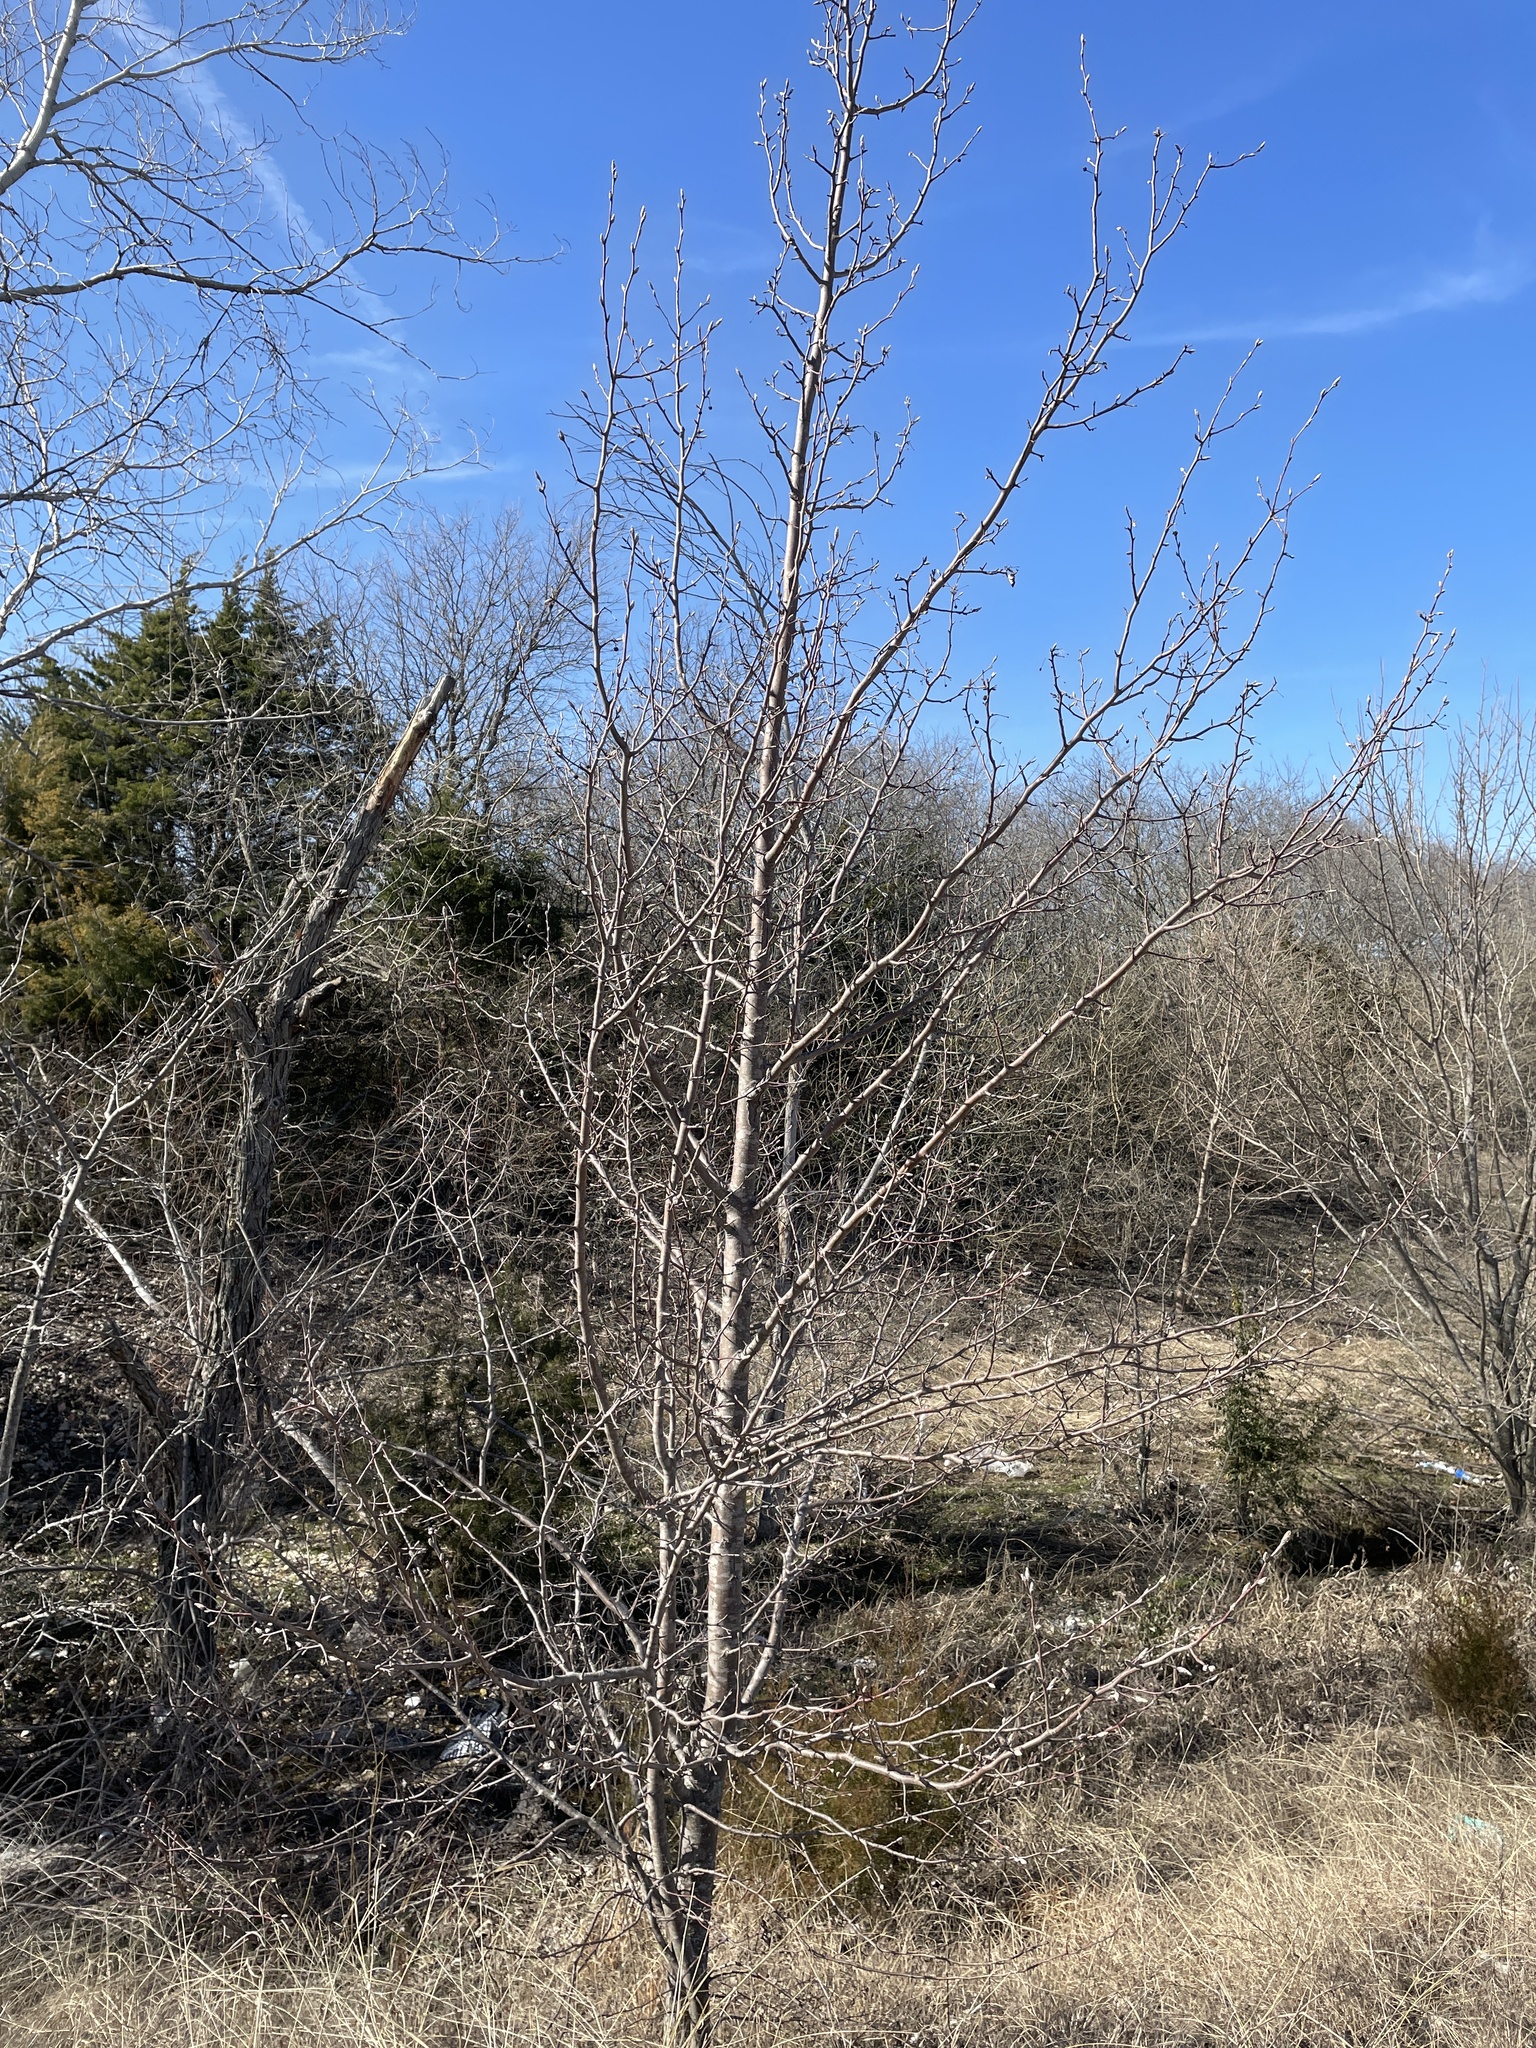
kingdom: Plantae
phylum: Tracheophyta
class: Magnoliopsida
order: Rosales
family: Rosaceae
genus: Pyrus
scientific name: Pyrus calleryana
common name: Callery pear
